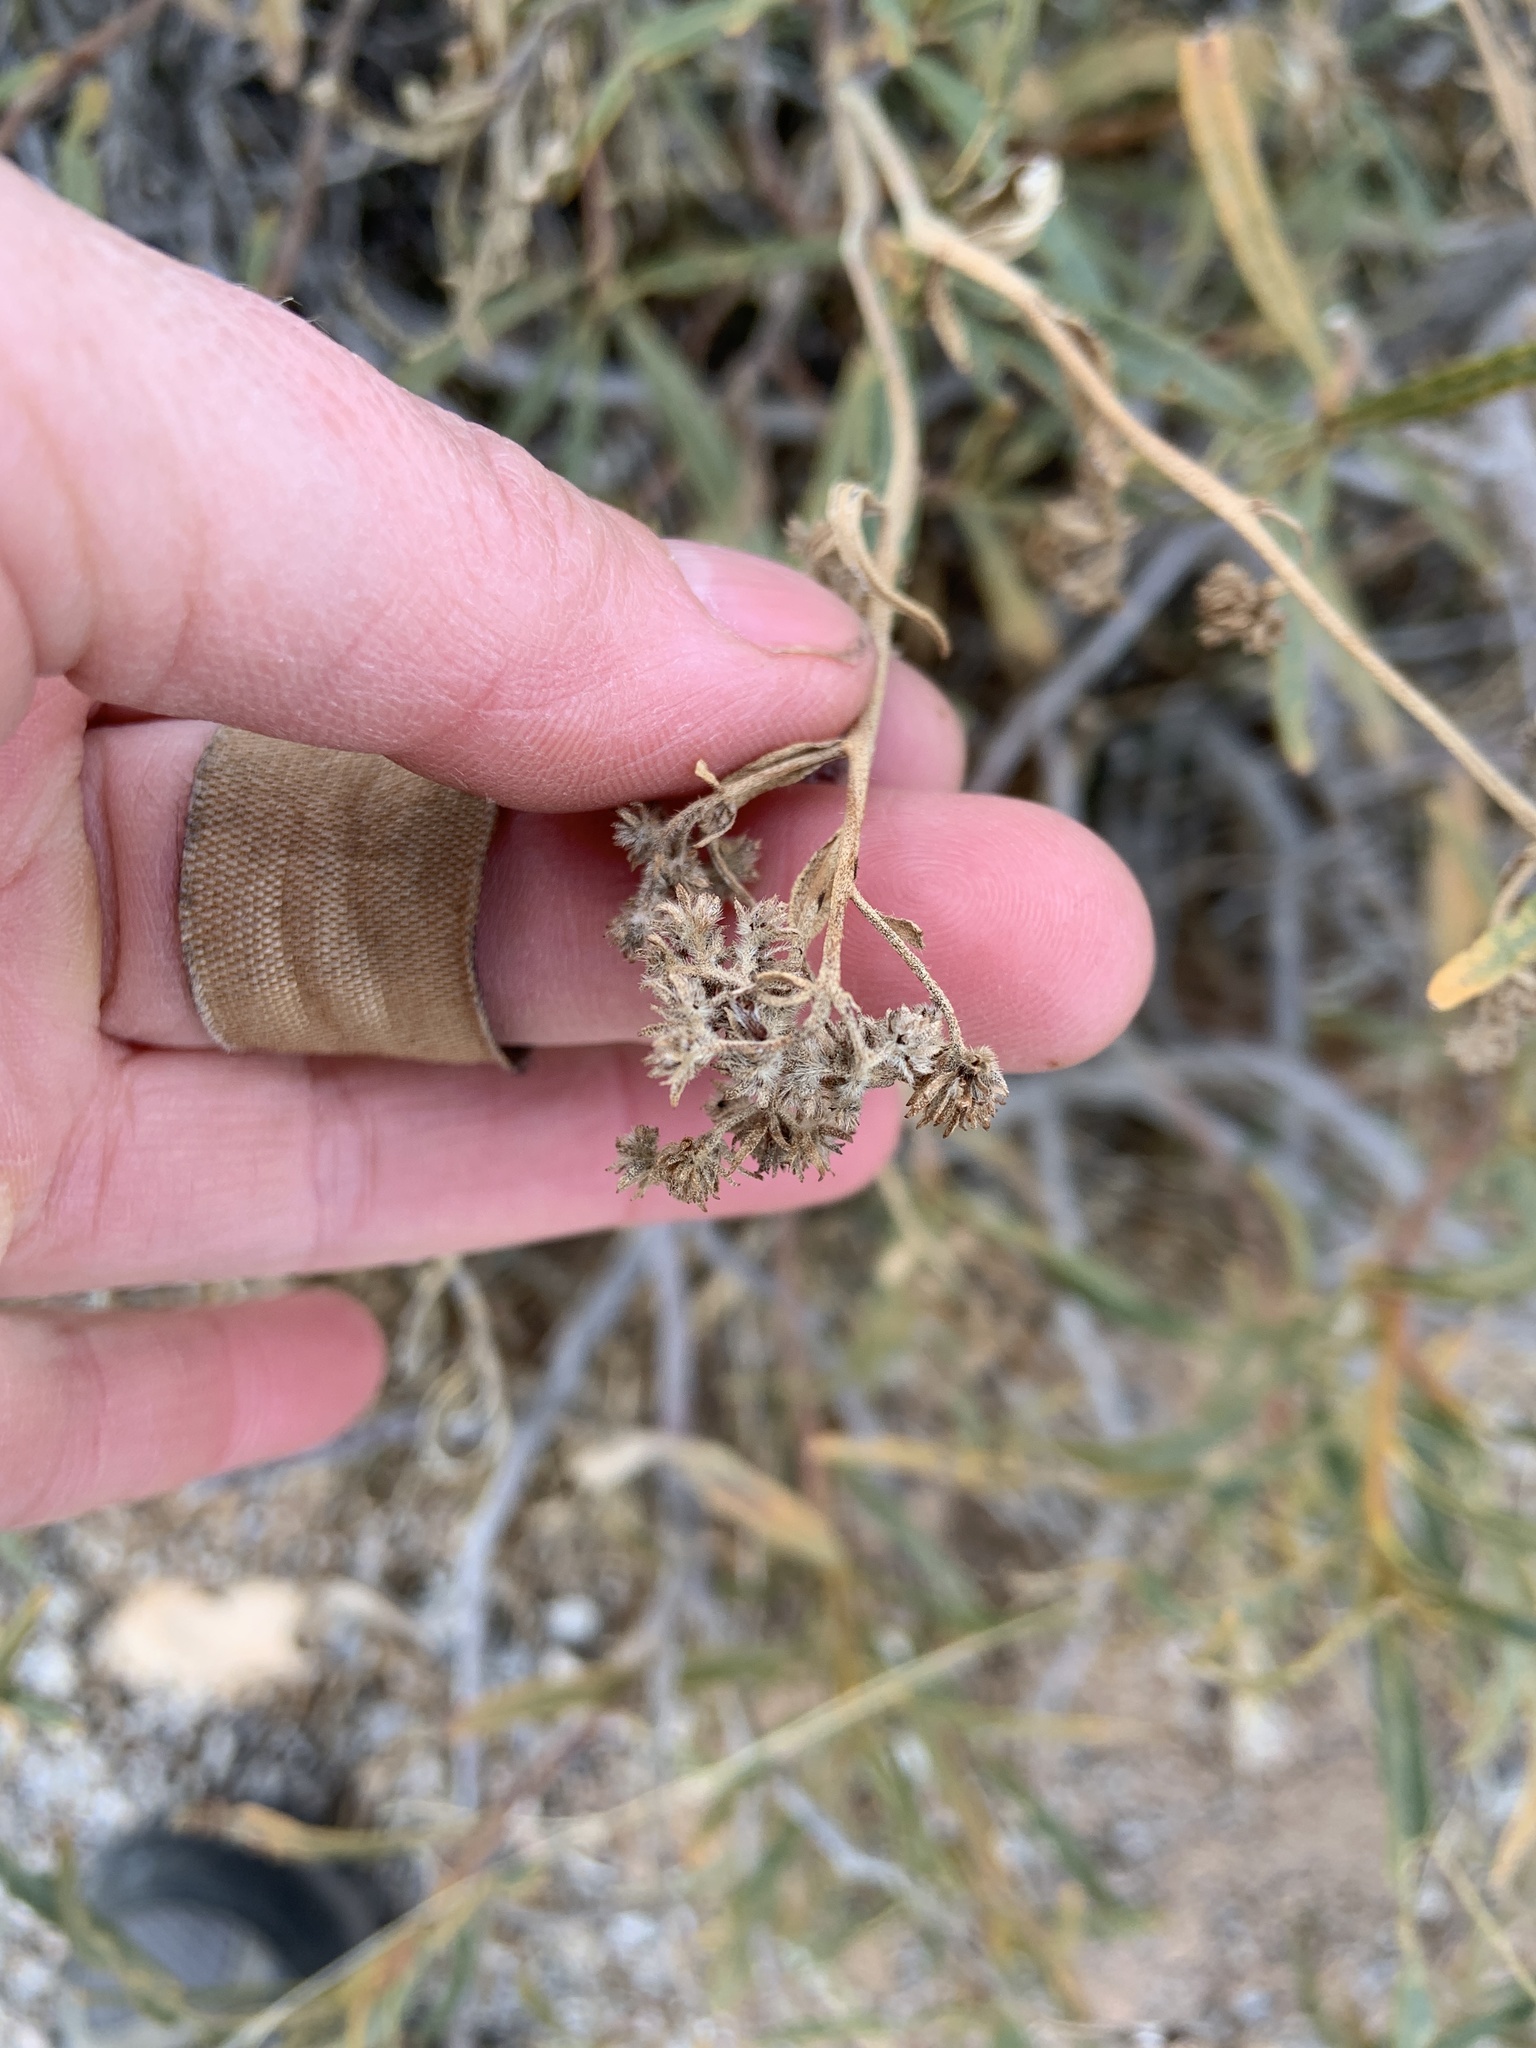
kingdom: Plantae
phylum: Tracheophyta
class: Magnoliopsida
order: Boraginales
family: Namaceae
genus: Eriodictyon
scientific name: Eriodictyon angustifolium
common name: Narrow-leaf yerba santa
